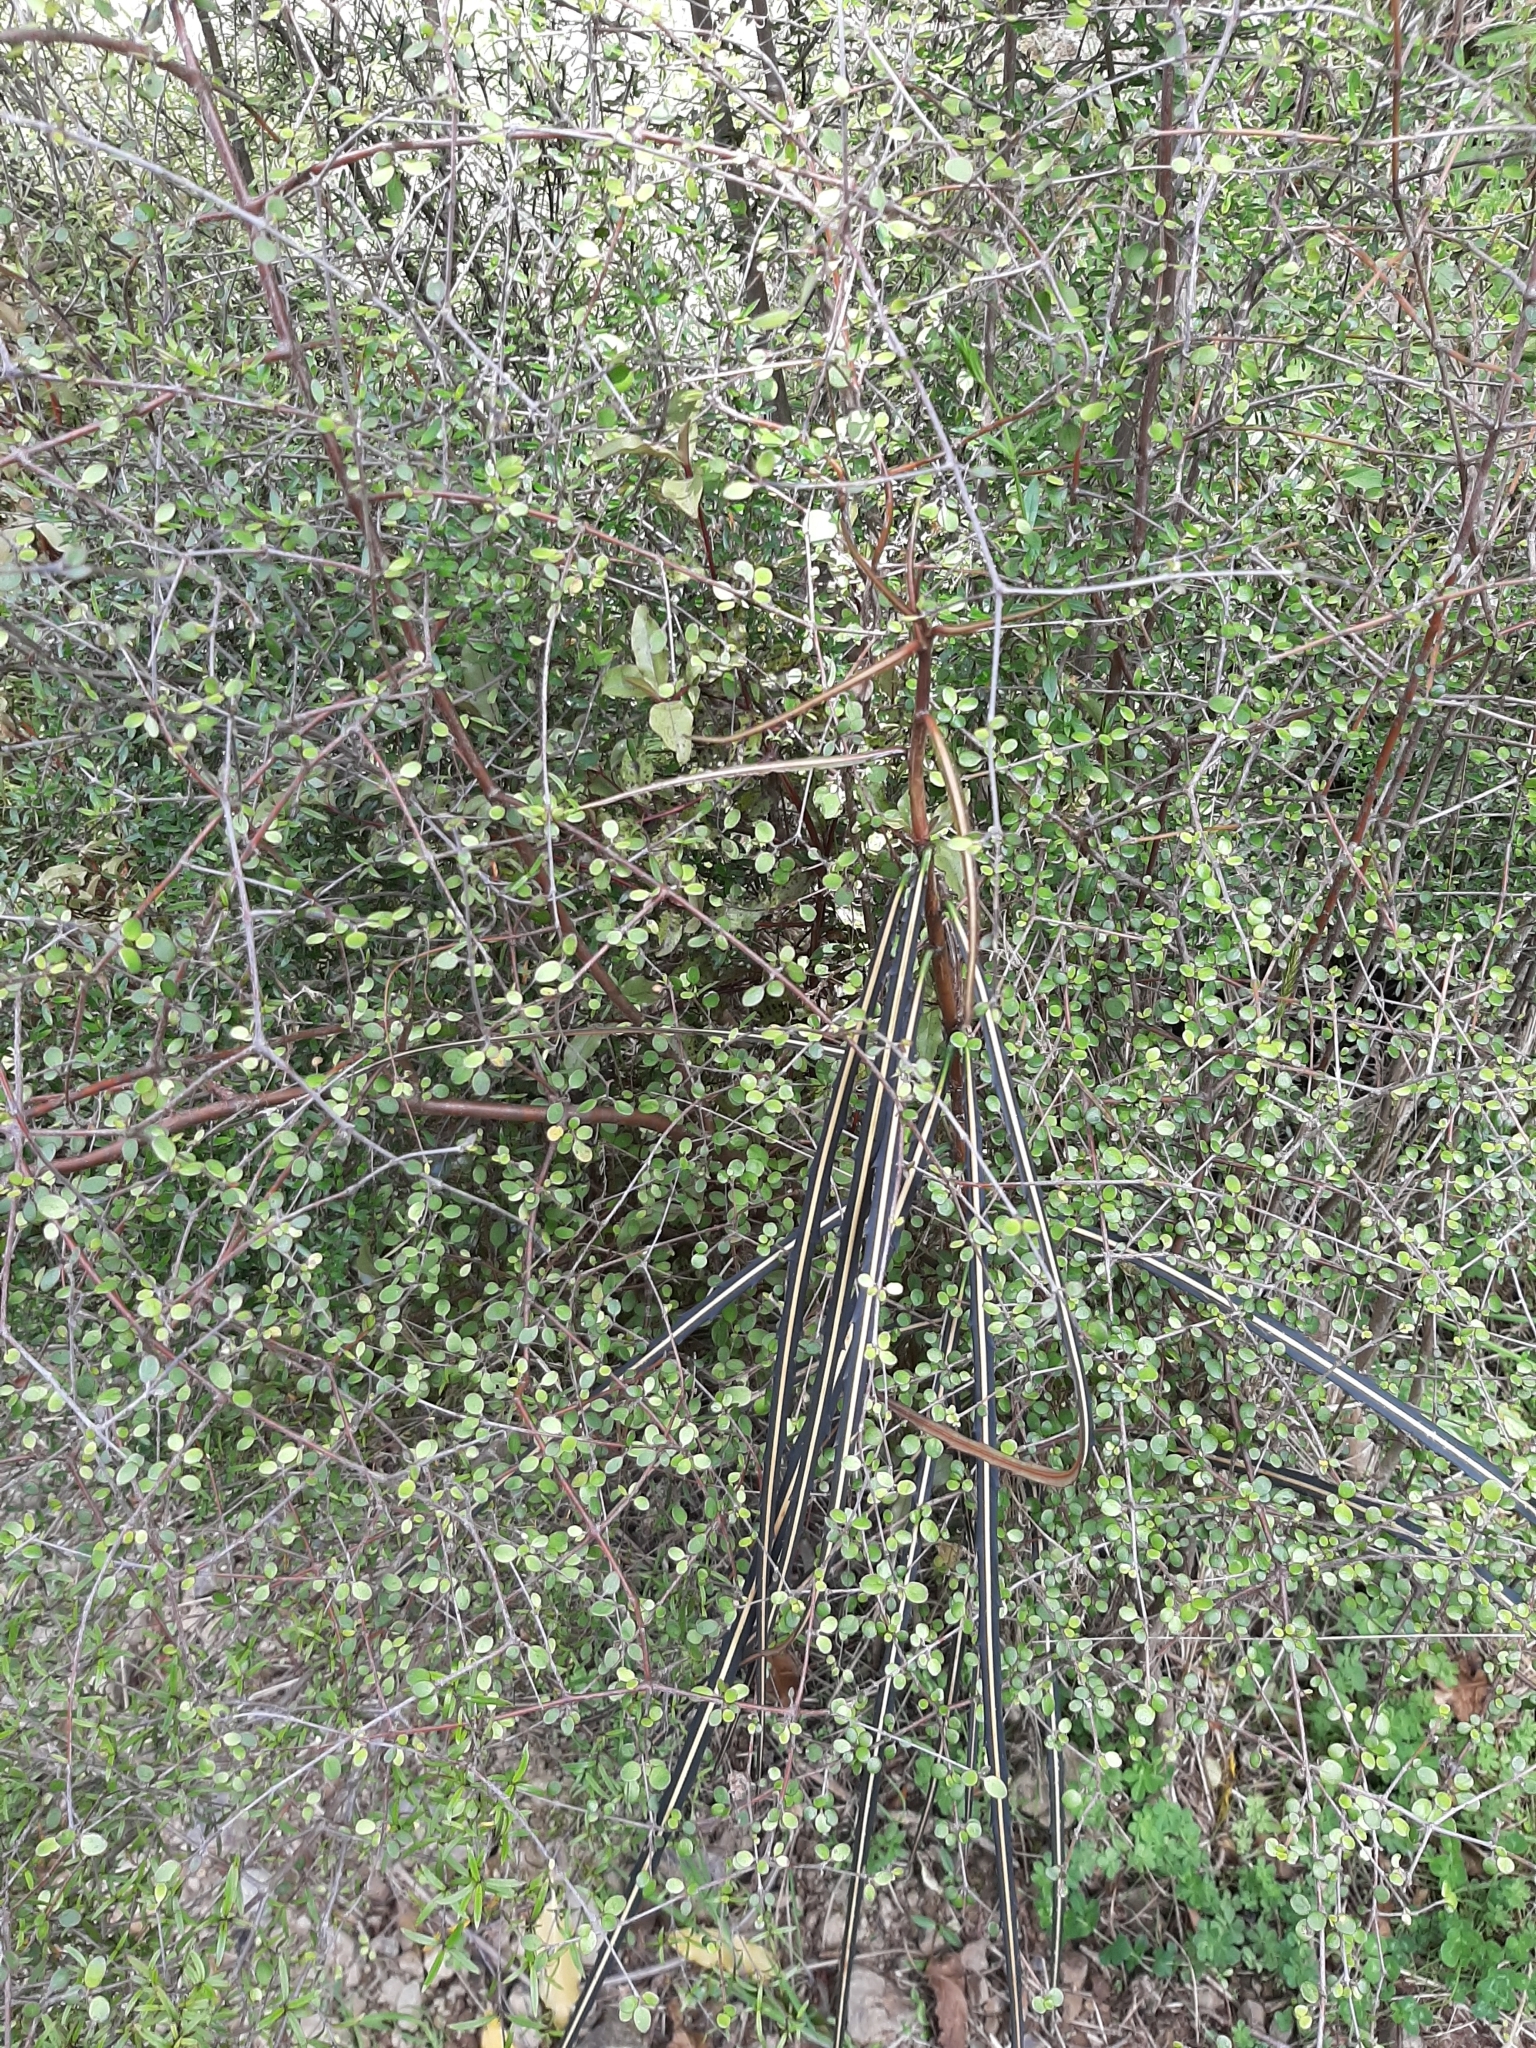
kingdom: Plantae
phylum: Tracheophyta
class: Magnoliopsida
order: Apiales
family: Araliaceae
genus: Pseudopanax
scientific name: Pseudopanax crassifolius
